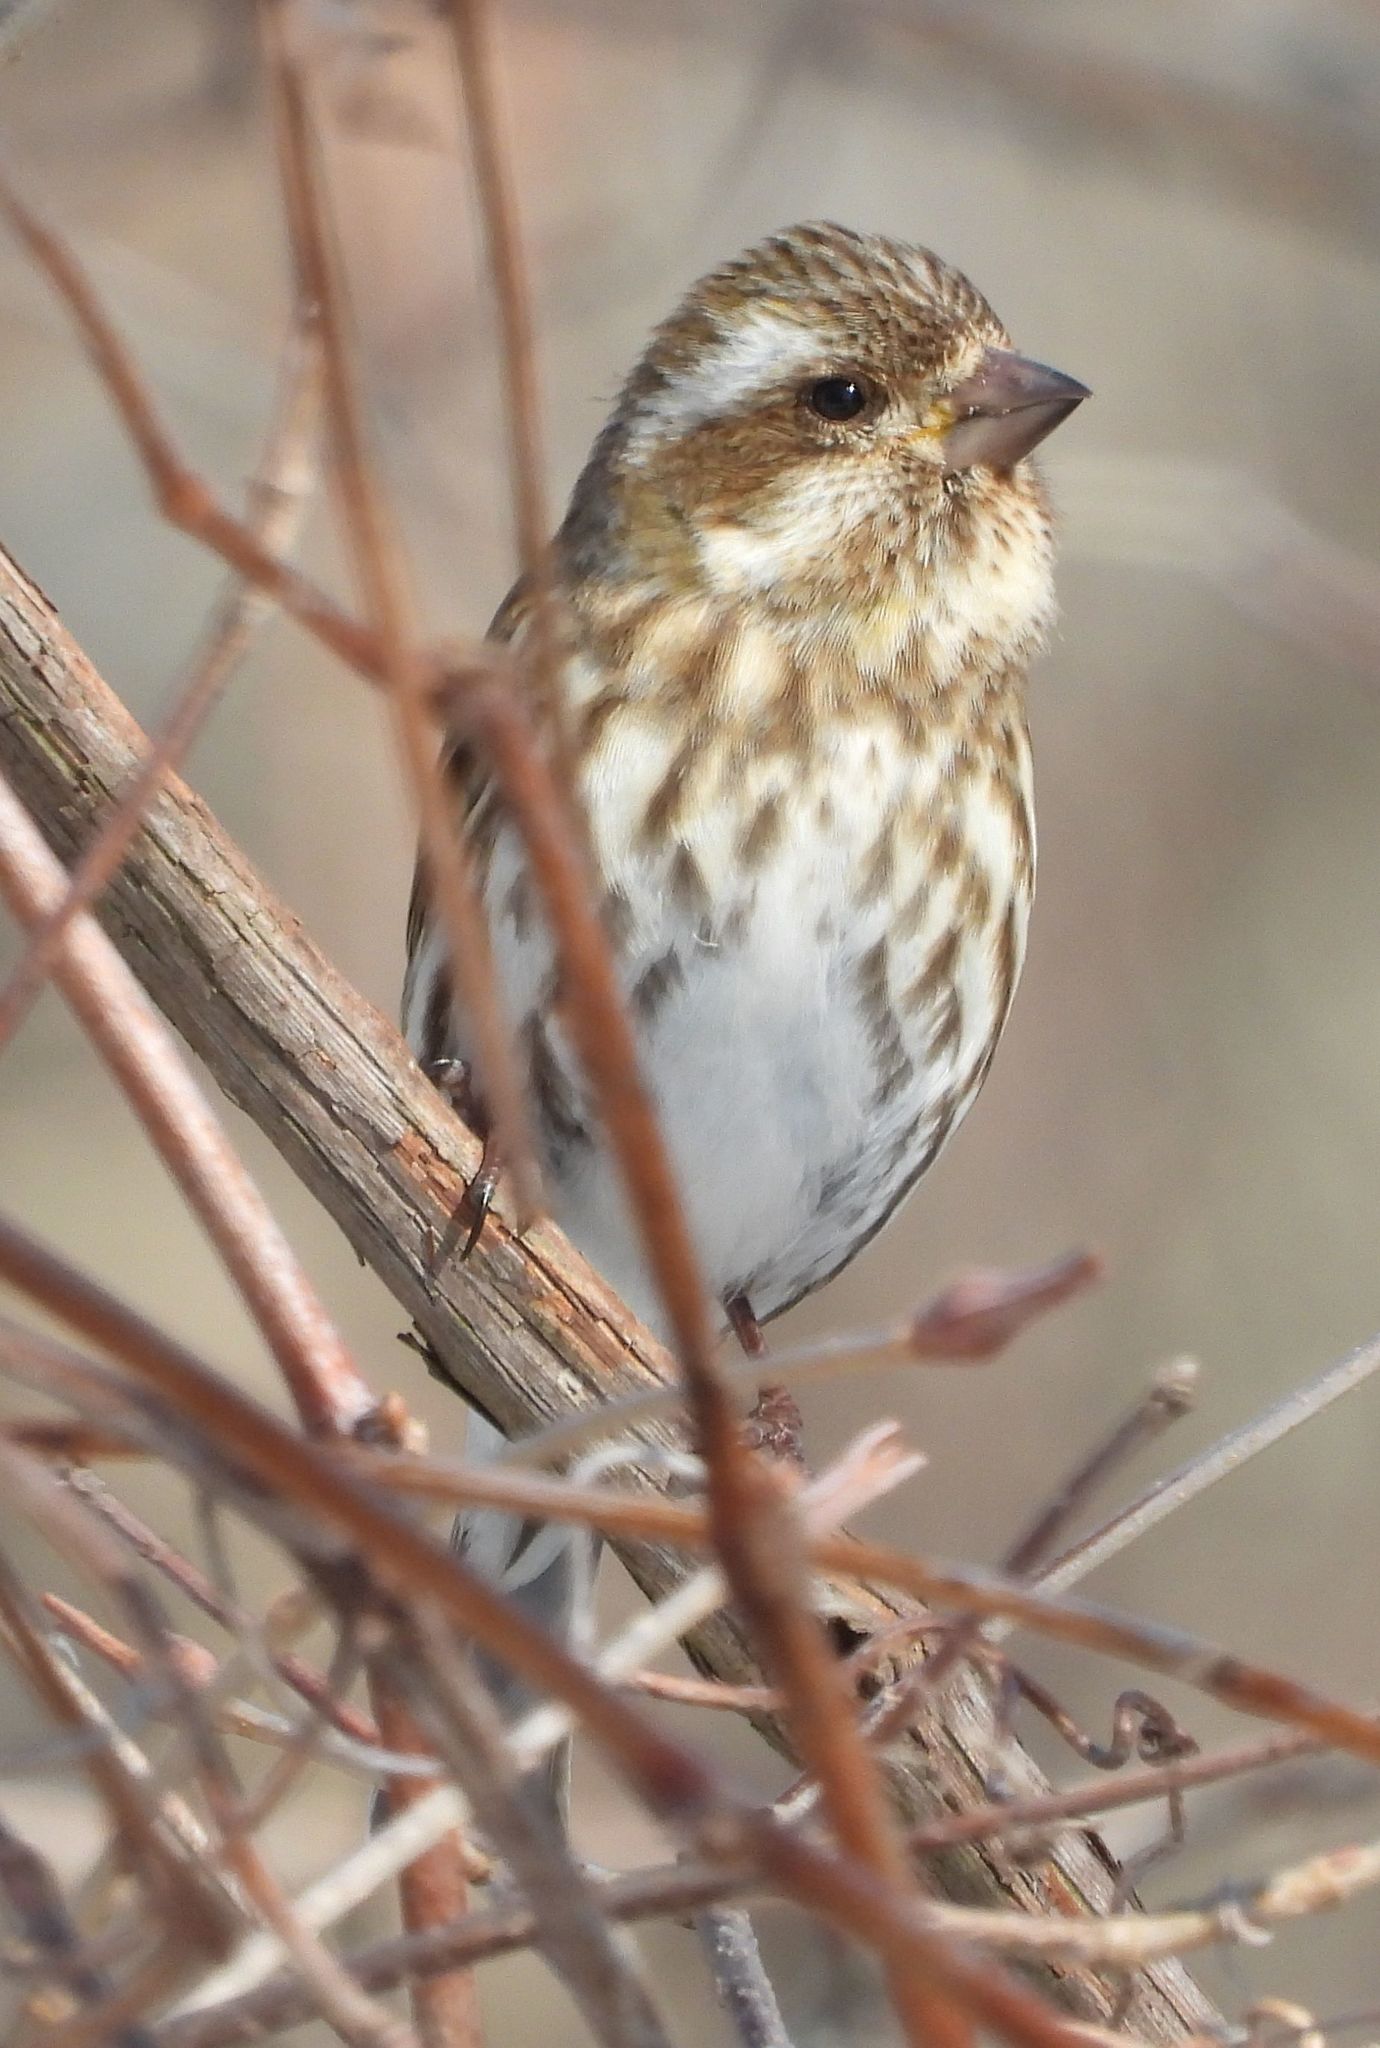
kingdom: Animalia
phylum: Chordata
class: Aves
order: Passeriformes
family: Fringillidae
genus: Haemorhous
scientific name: Haemorhous purpureus
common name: Purple finch
